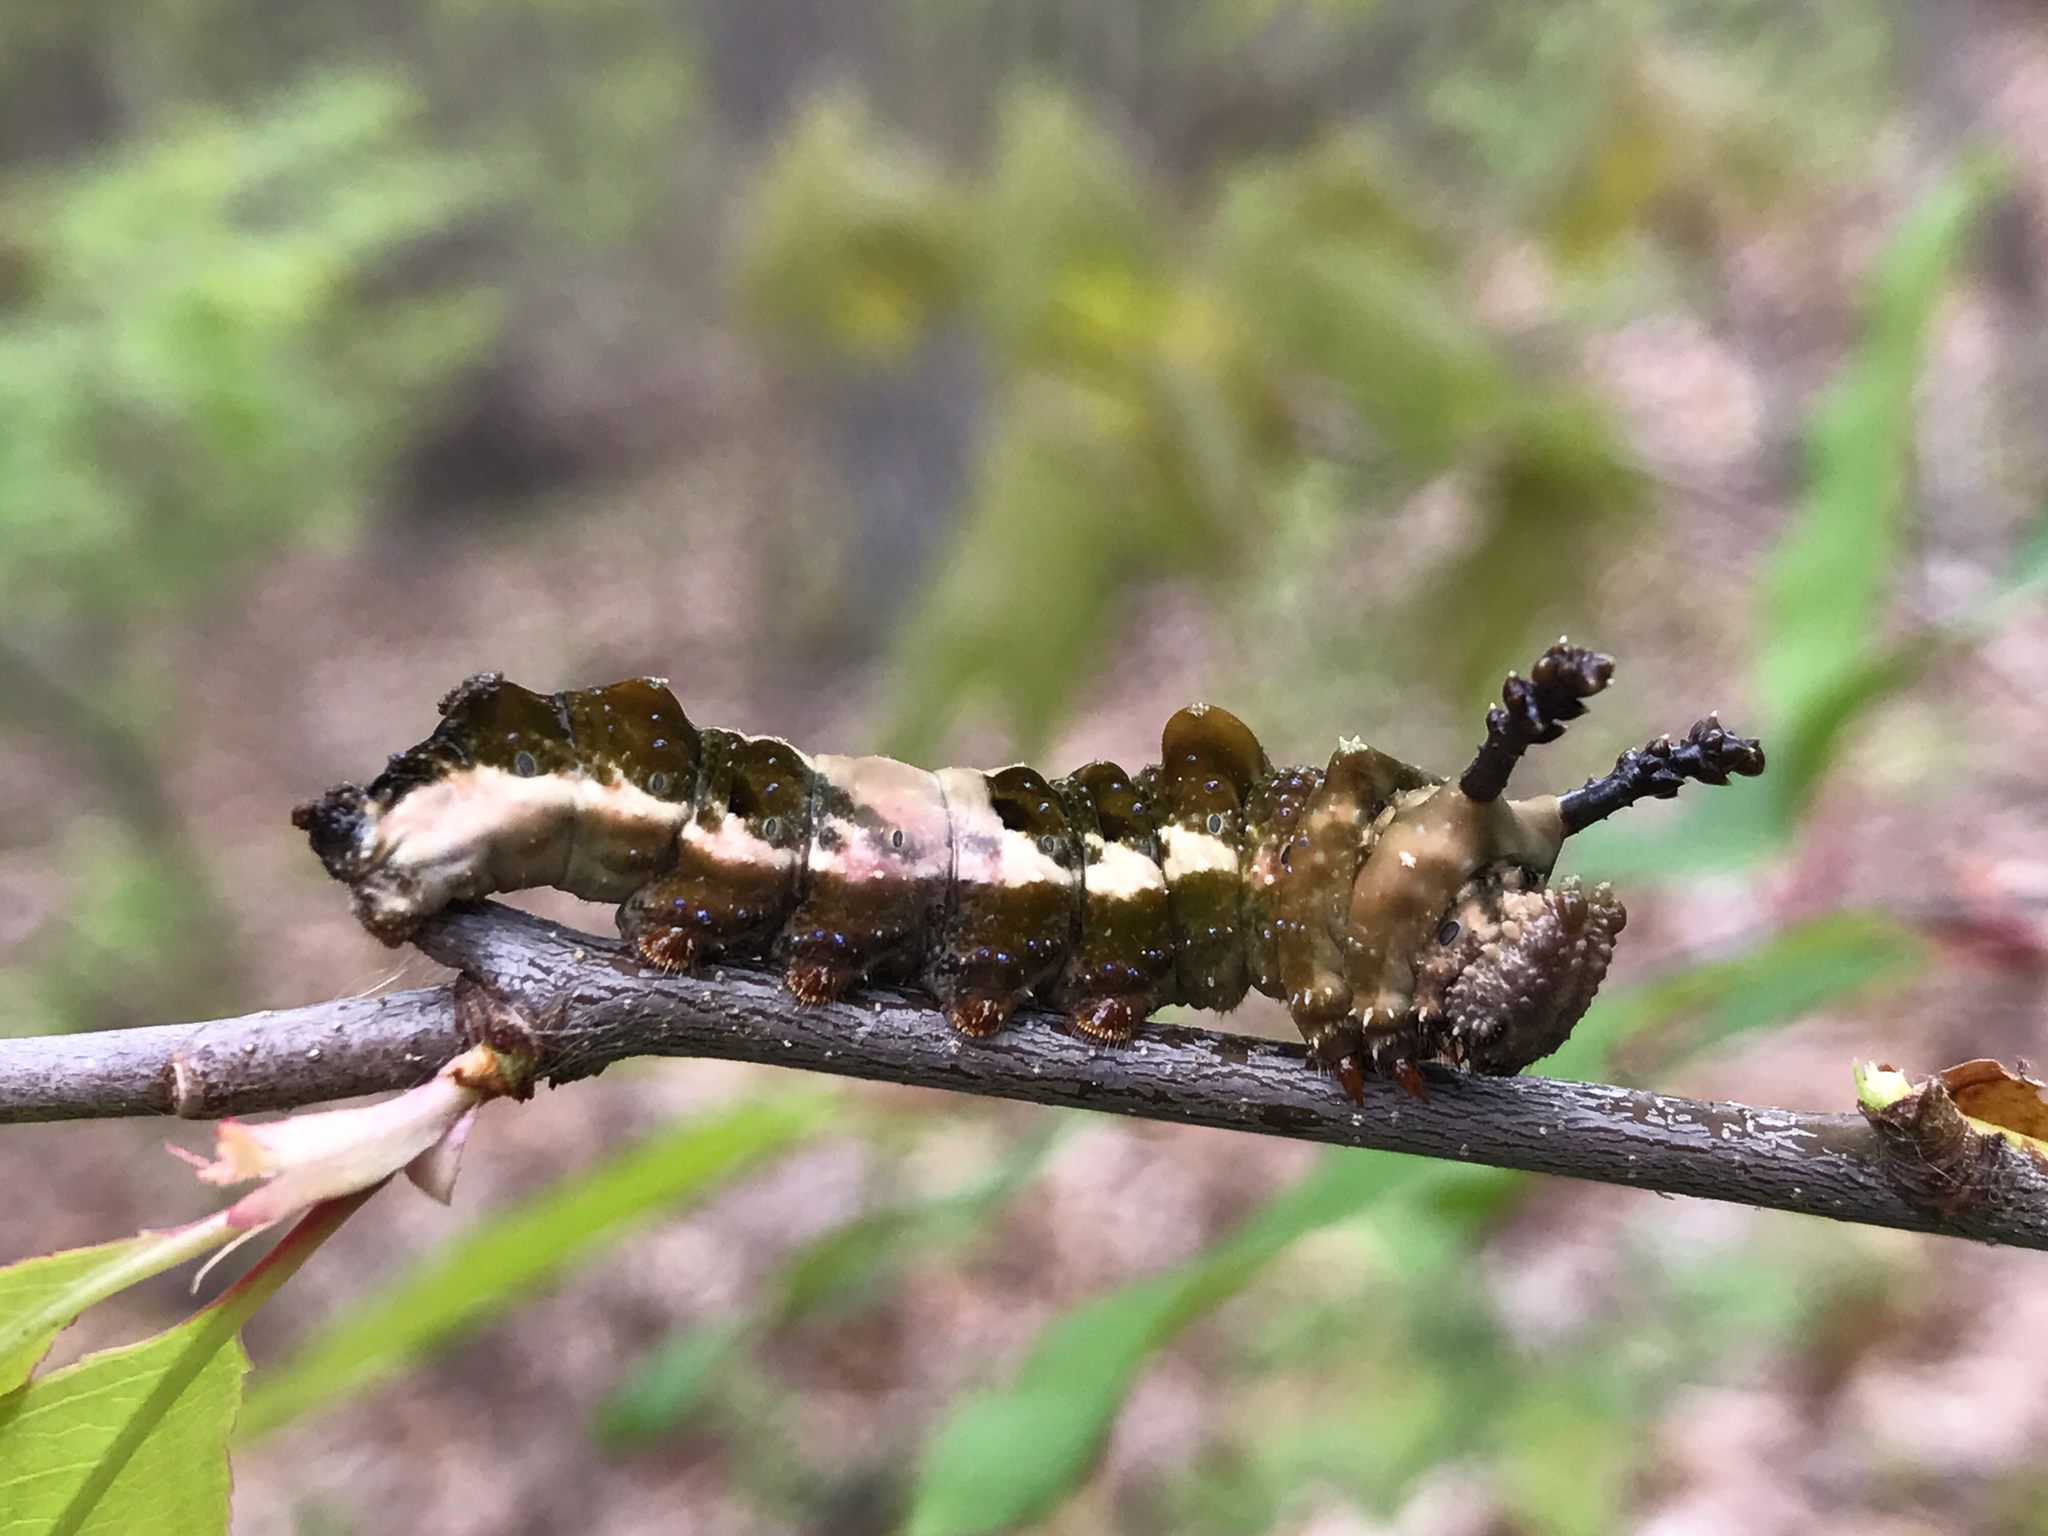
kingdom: Animalia
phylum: Arthropoda
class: Insecta
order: Lepidoptera
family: Nymphalidae
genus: Limenitis
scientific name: Limenitis astyanax
